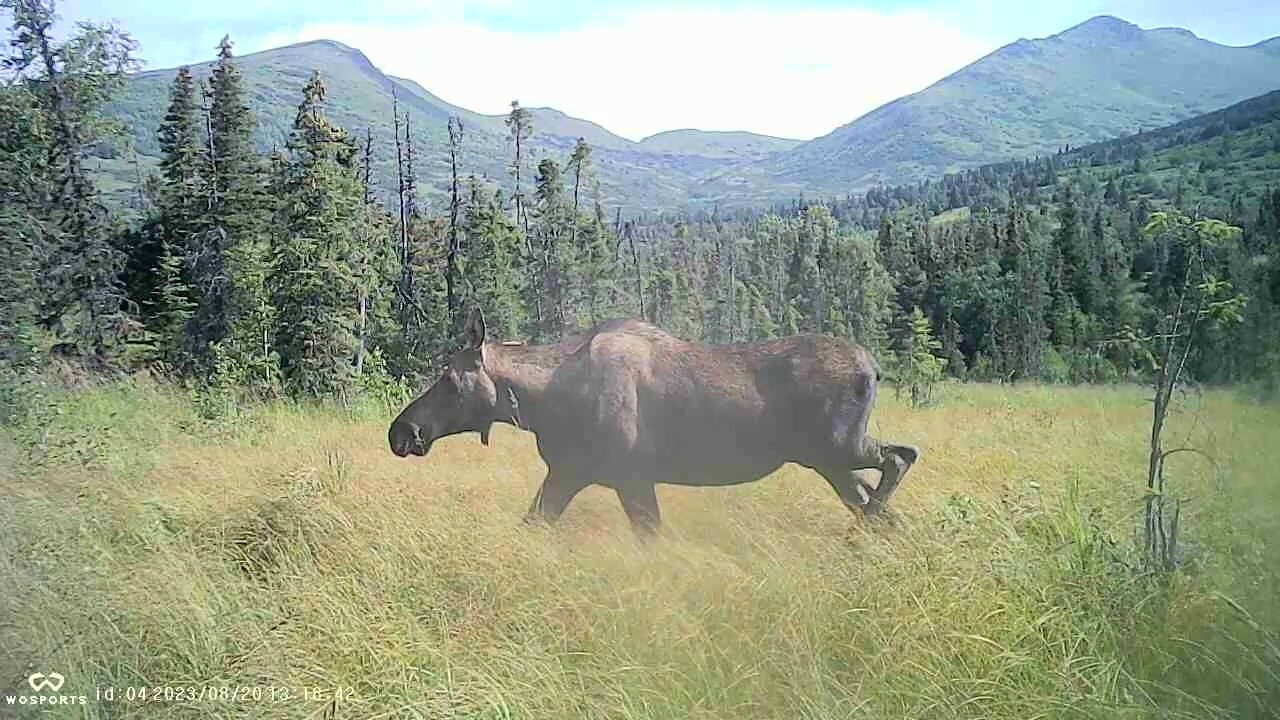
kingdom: Animalia
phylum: Chordata
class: Mammalia
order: Artiodactyla
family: Cervidae
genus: Alces
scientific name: Alces alces
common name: Moose
